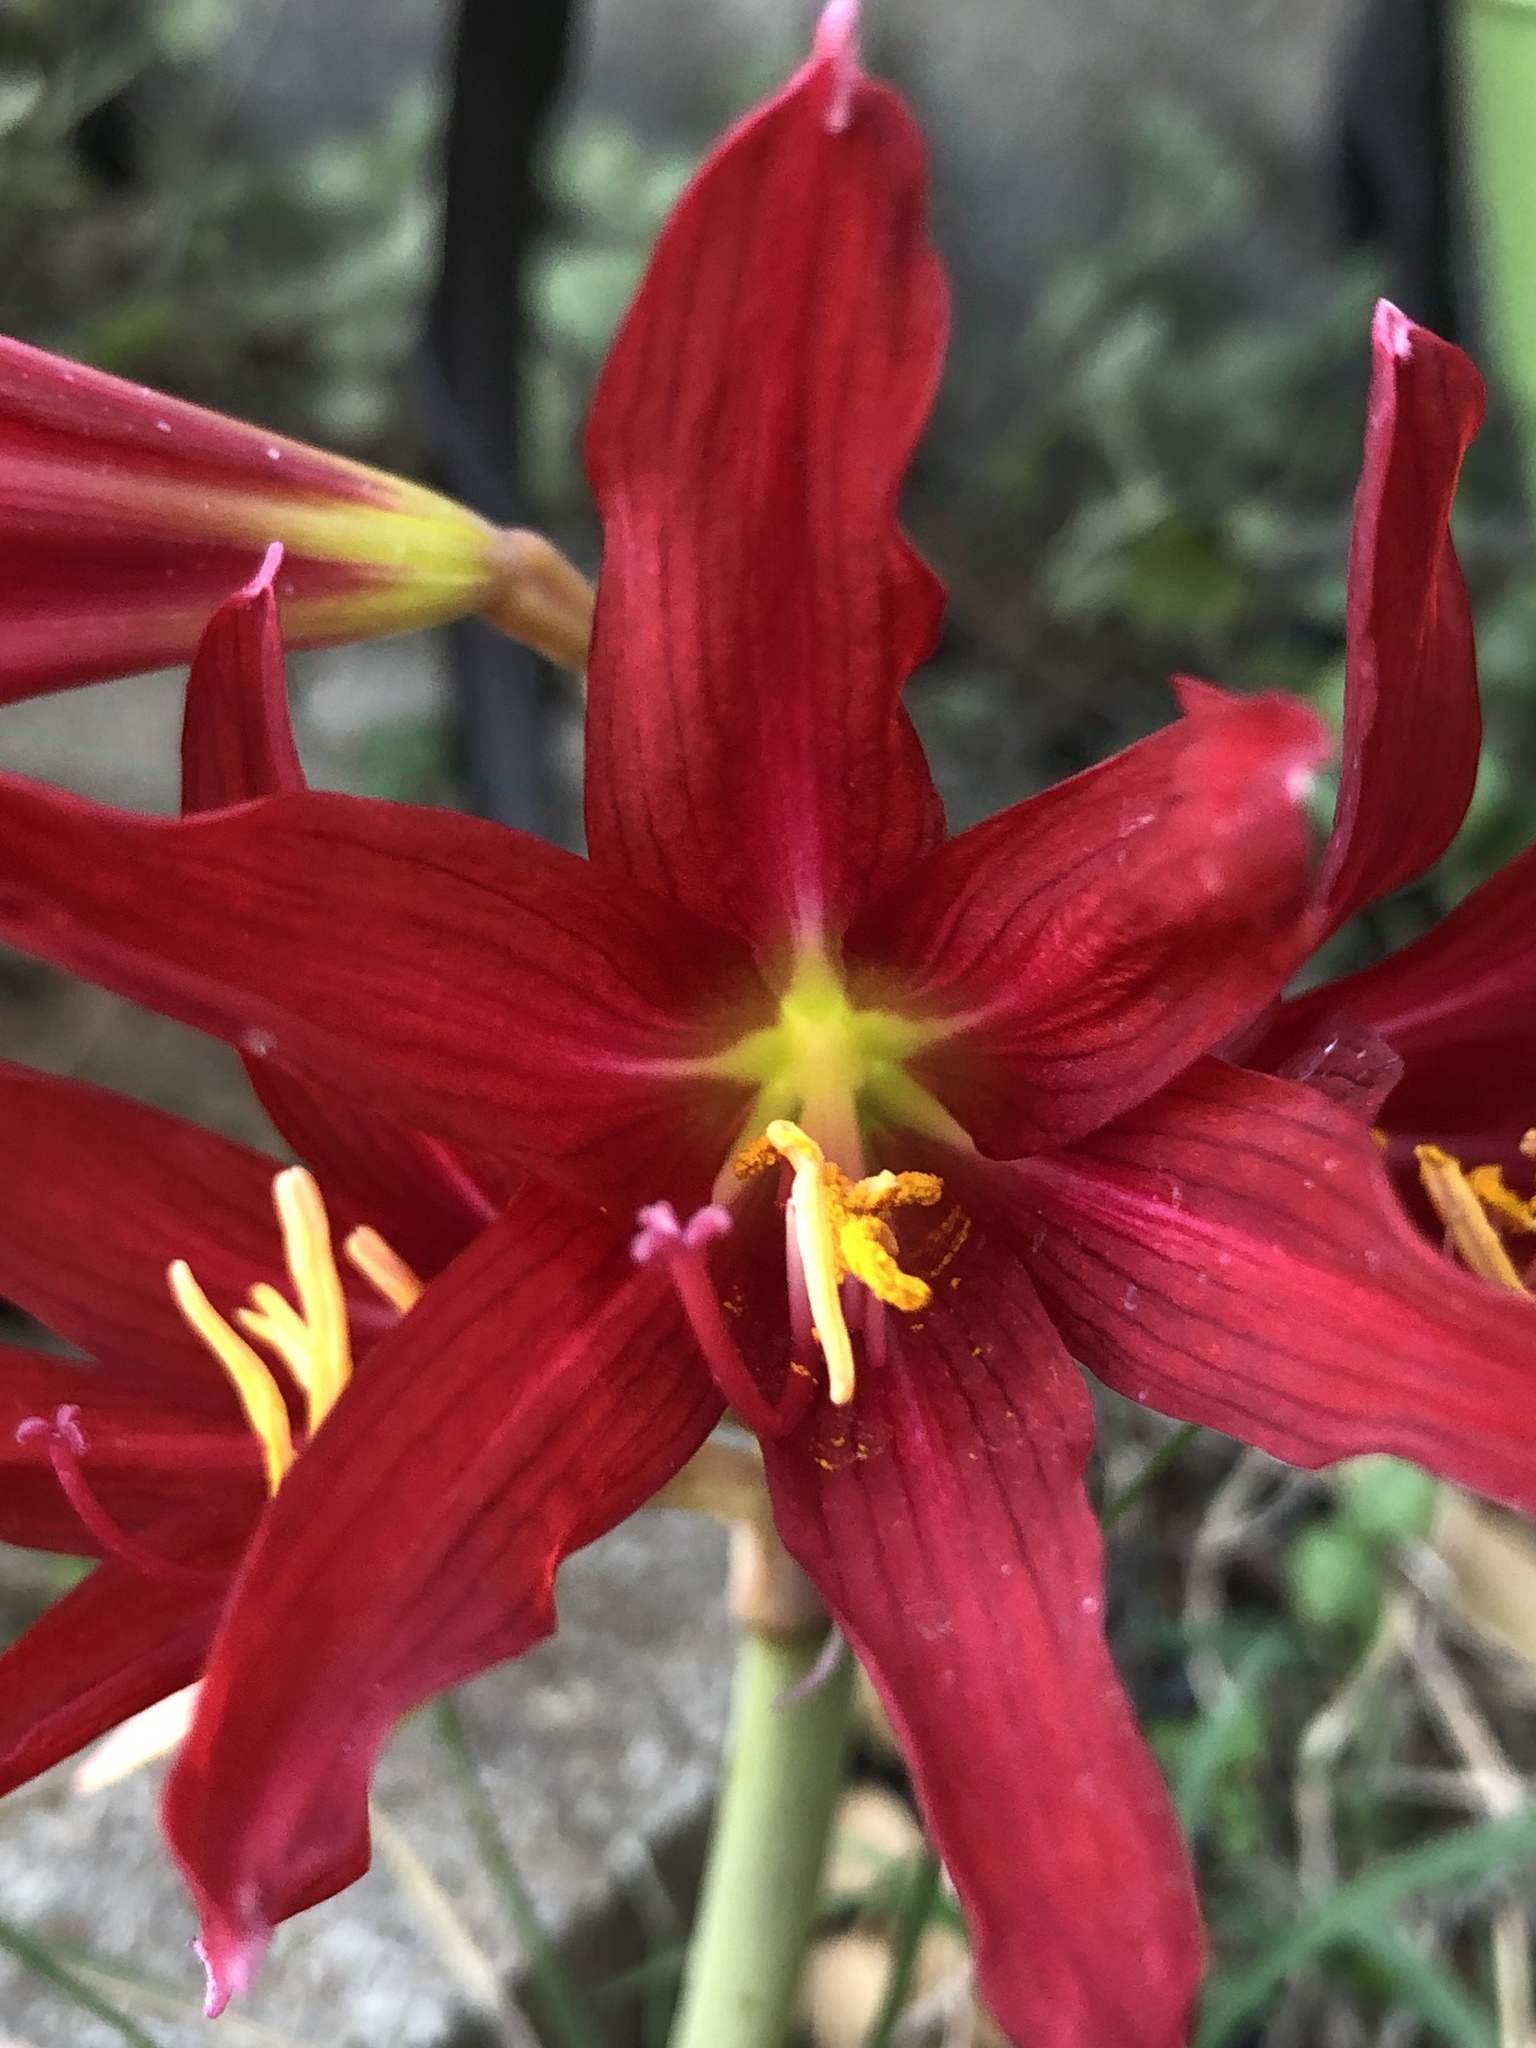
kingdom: Plantae
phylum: Tracheophyta
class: Liliopsida
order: Asparagales
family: Amaryllidaceae
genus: Zephyranthes
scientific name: Zephyranthes bifida
